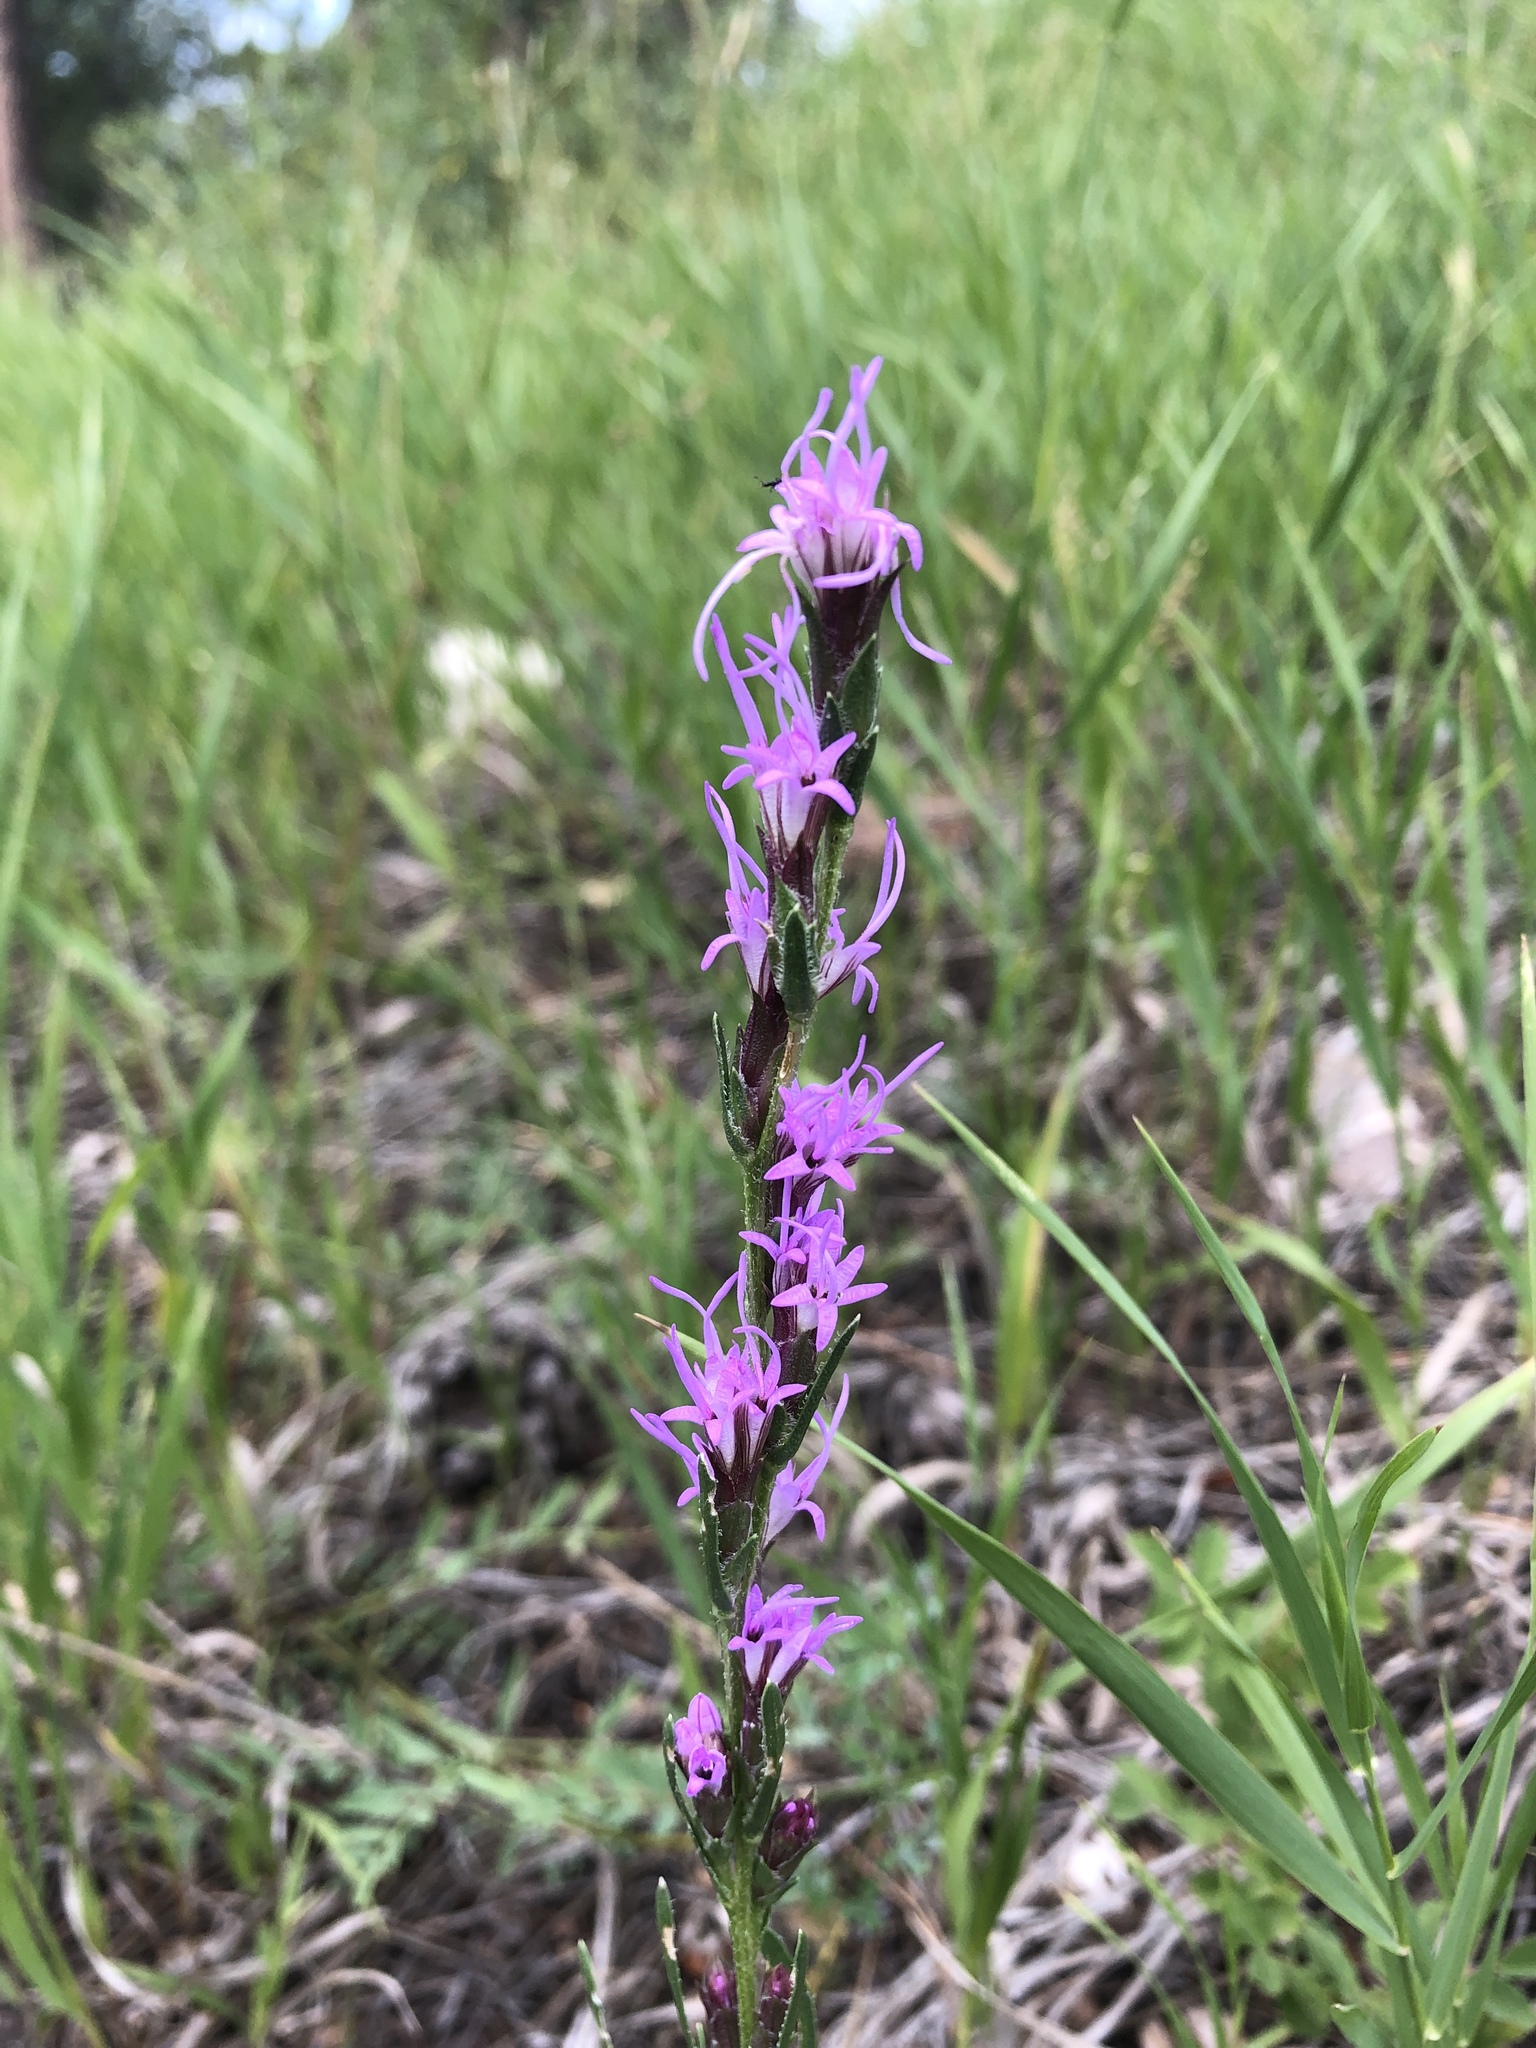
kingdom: Plantae
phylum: Tracheophyta
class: Magnoliopsida
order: Asterales
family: Asteraceae
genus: Liatris
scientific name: Liatris punctata
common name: Dotted gayfeather
